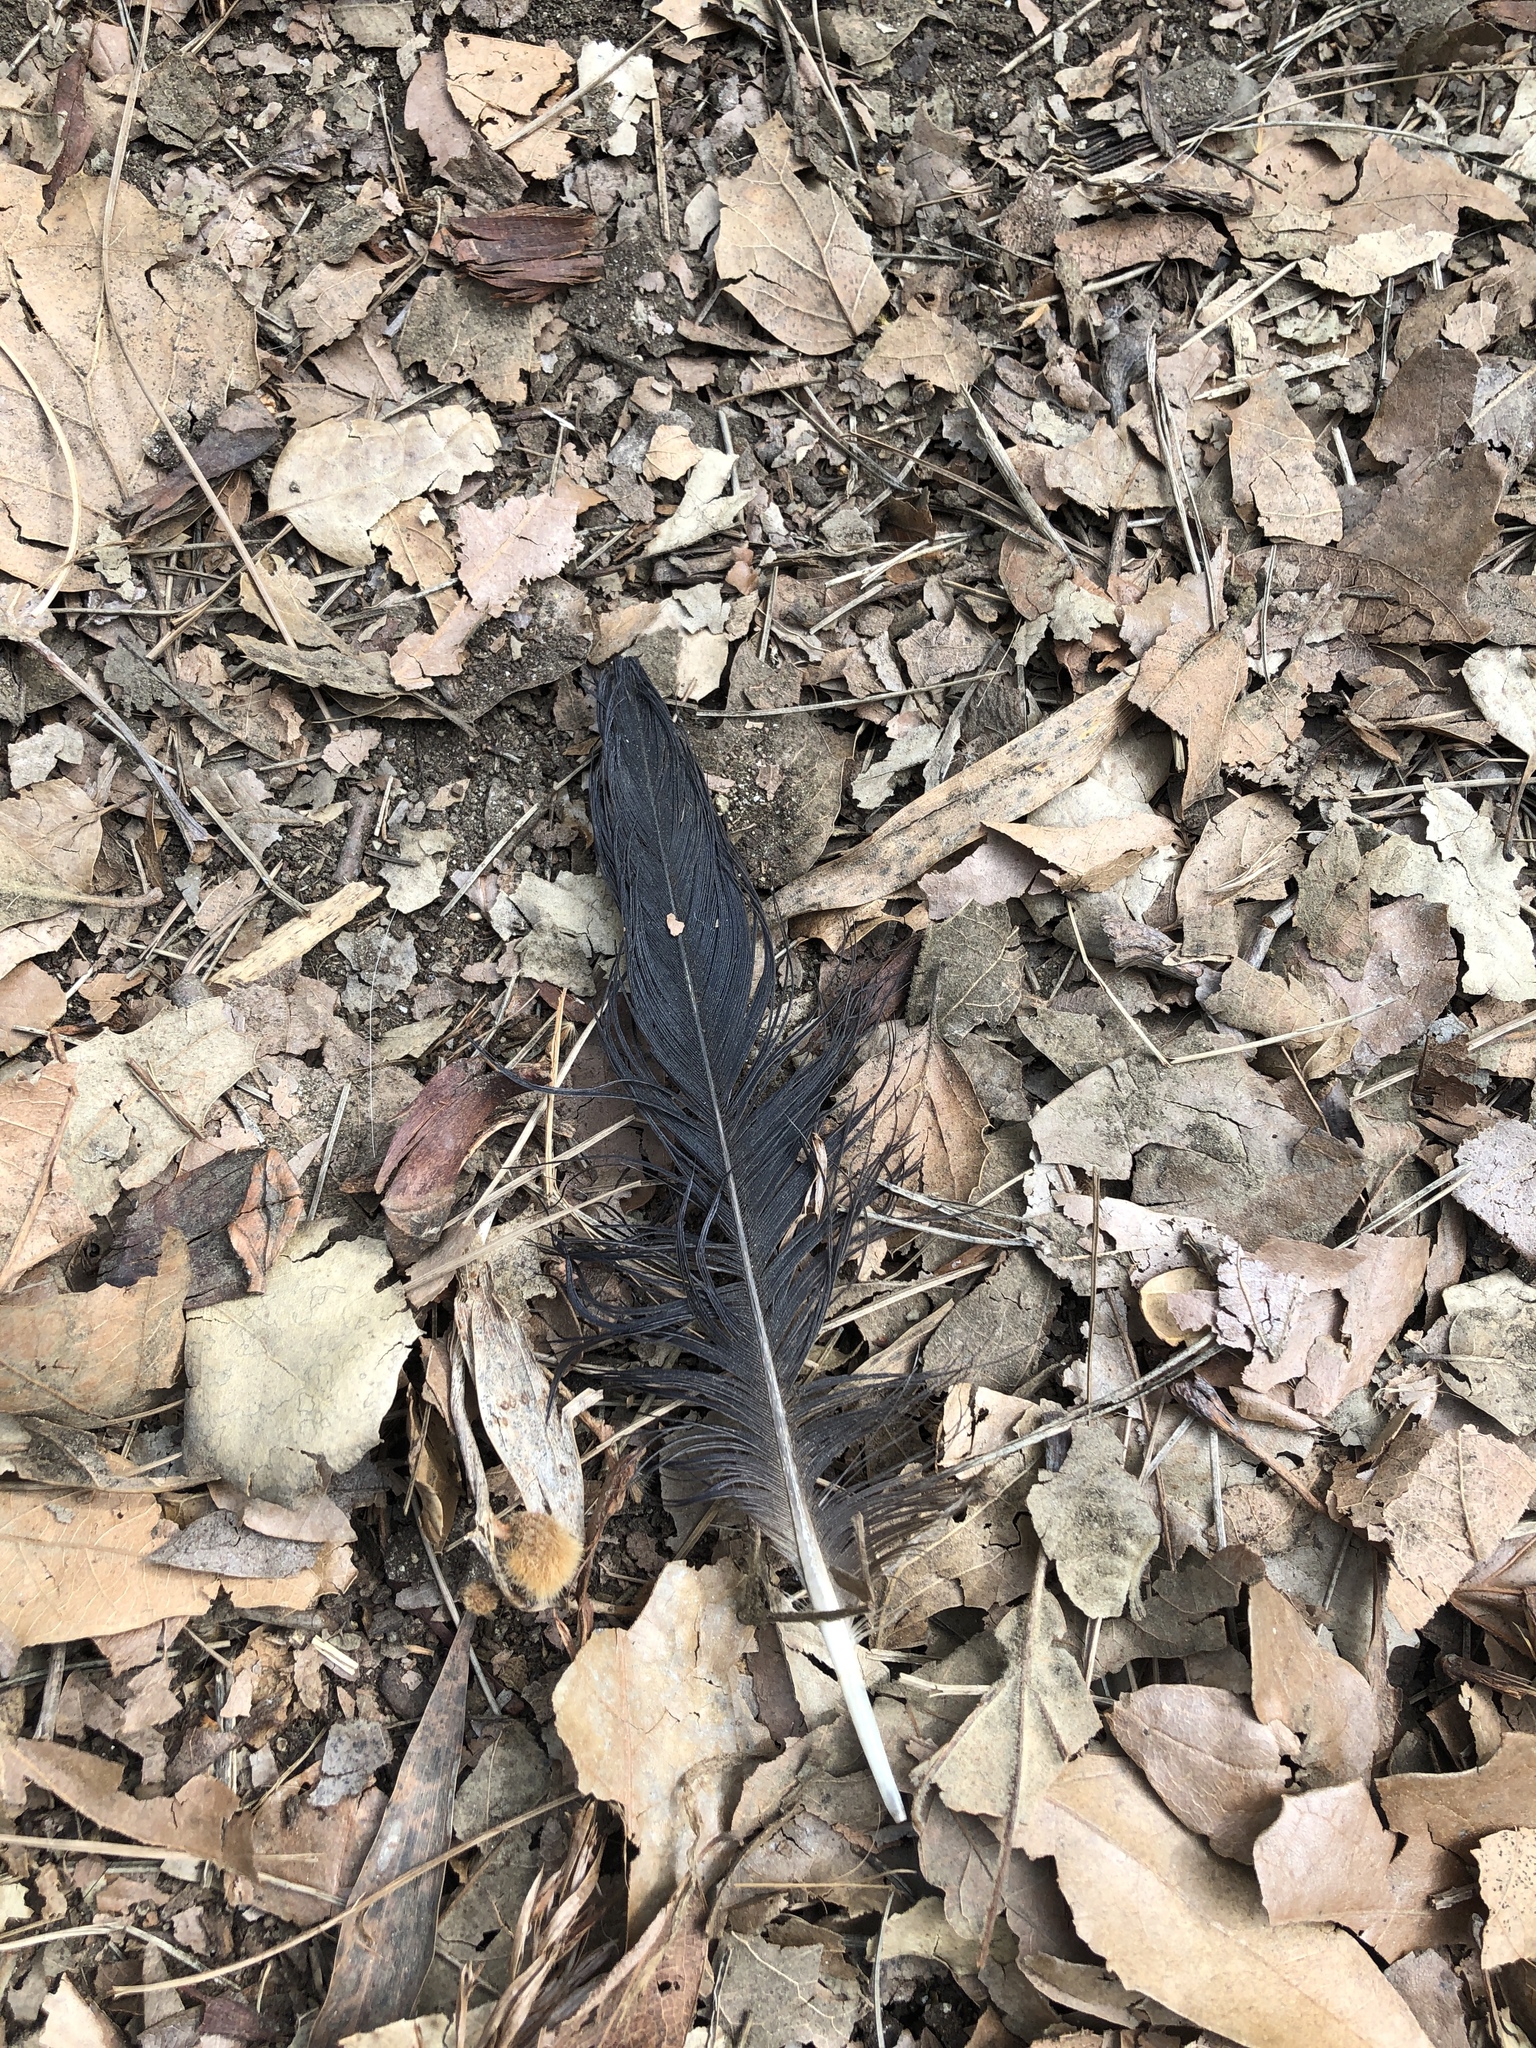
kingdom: Animalia
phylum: Chordata
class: Aves
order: Passeriformes
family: Corvidae
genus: Corvus
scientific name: Corvus brachyrhynchos
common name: American crow
